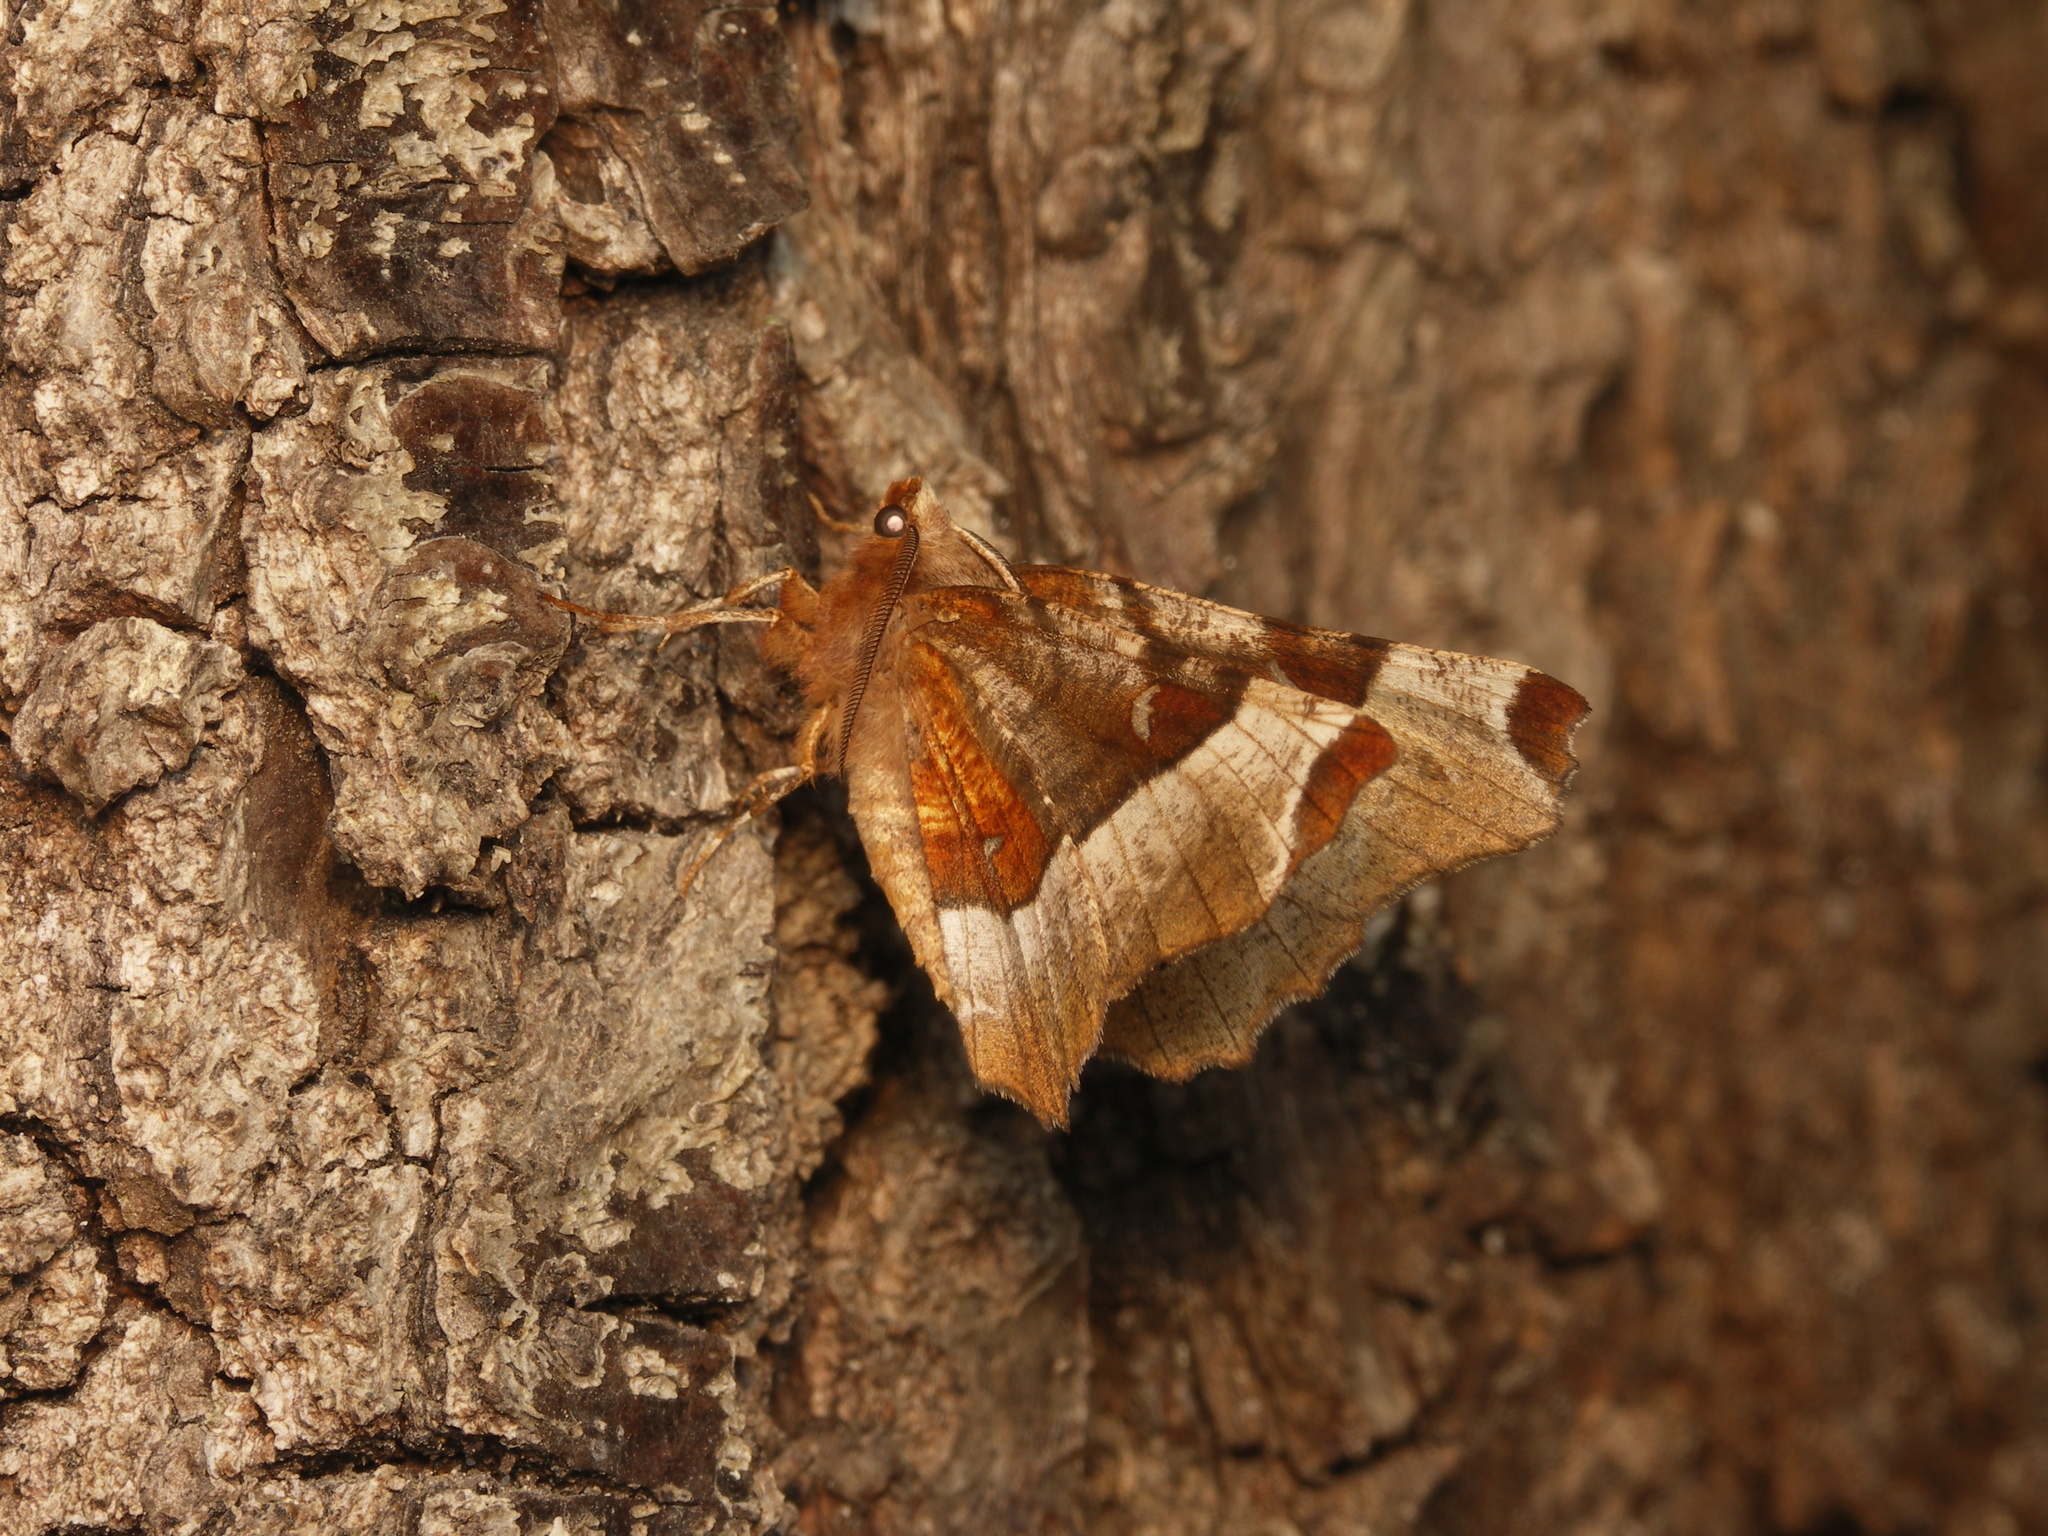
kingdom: Animalia
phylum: Arthropoda
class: Insecta
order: Lepidoptera
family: Geometridae
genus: Selenia
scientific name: Selenia tetralunaria
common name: Purple thorn
